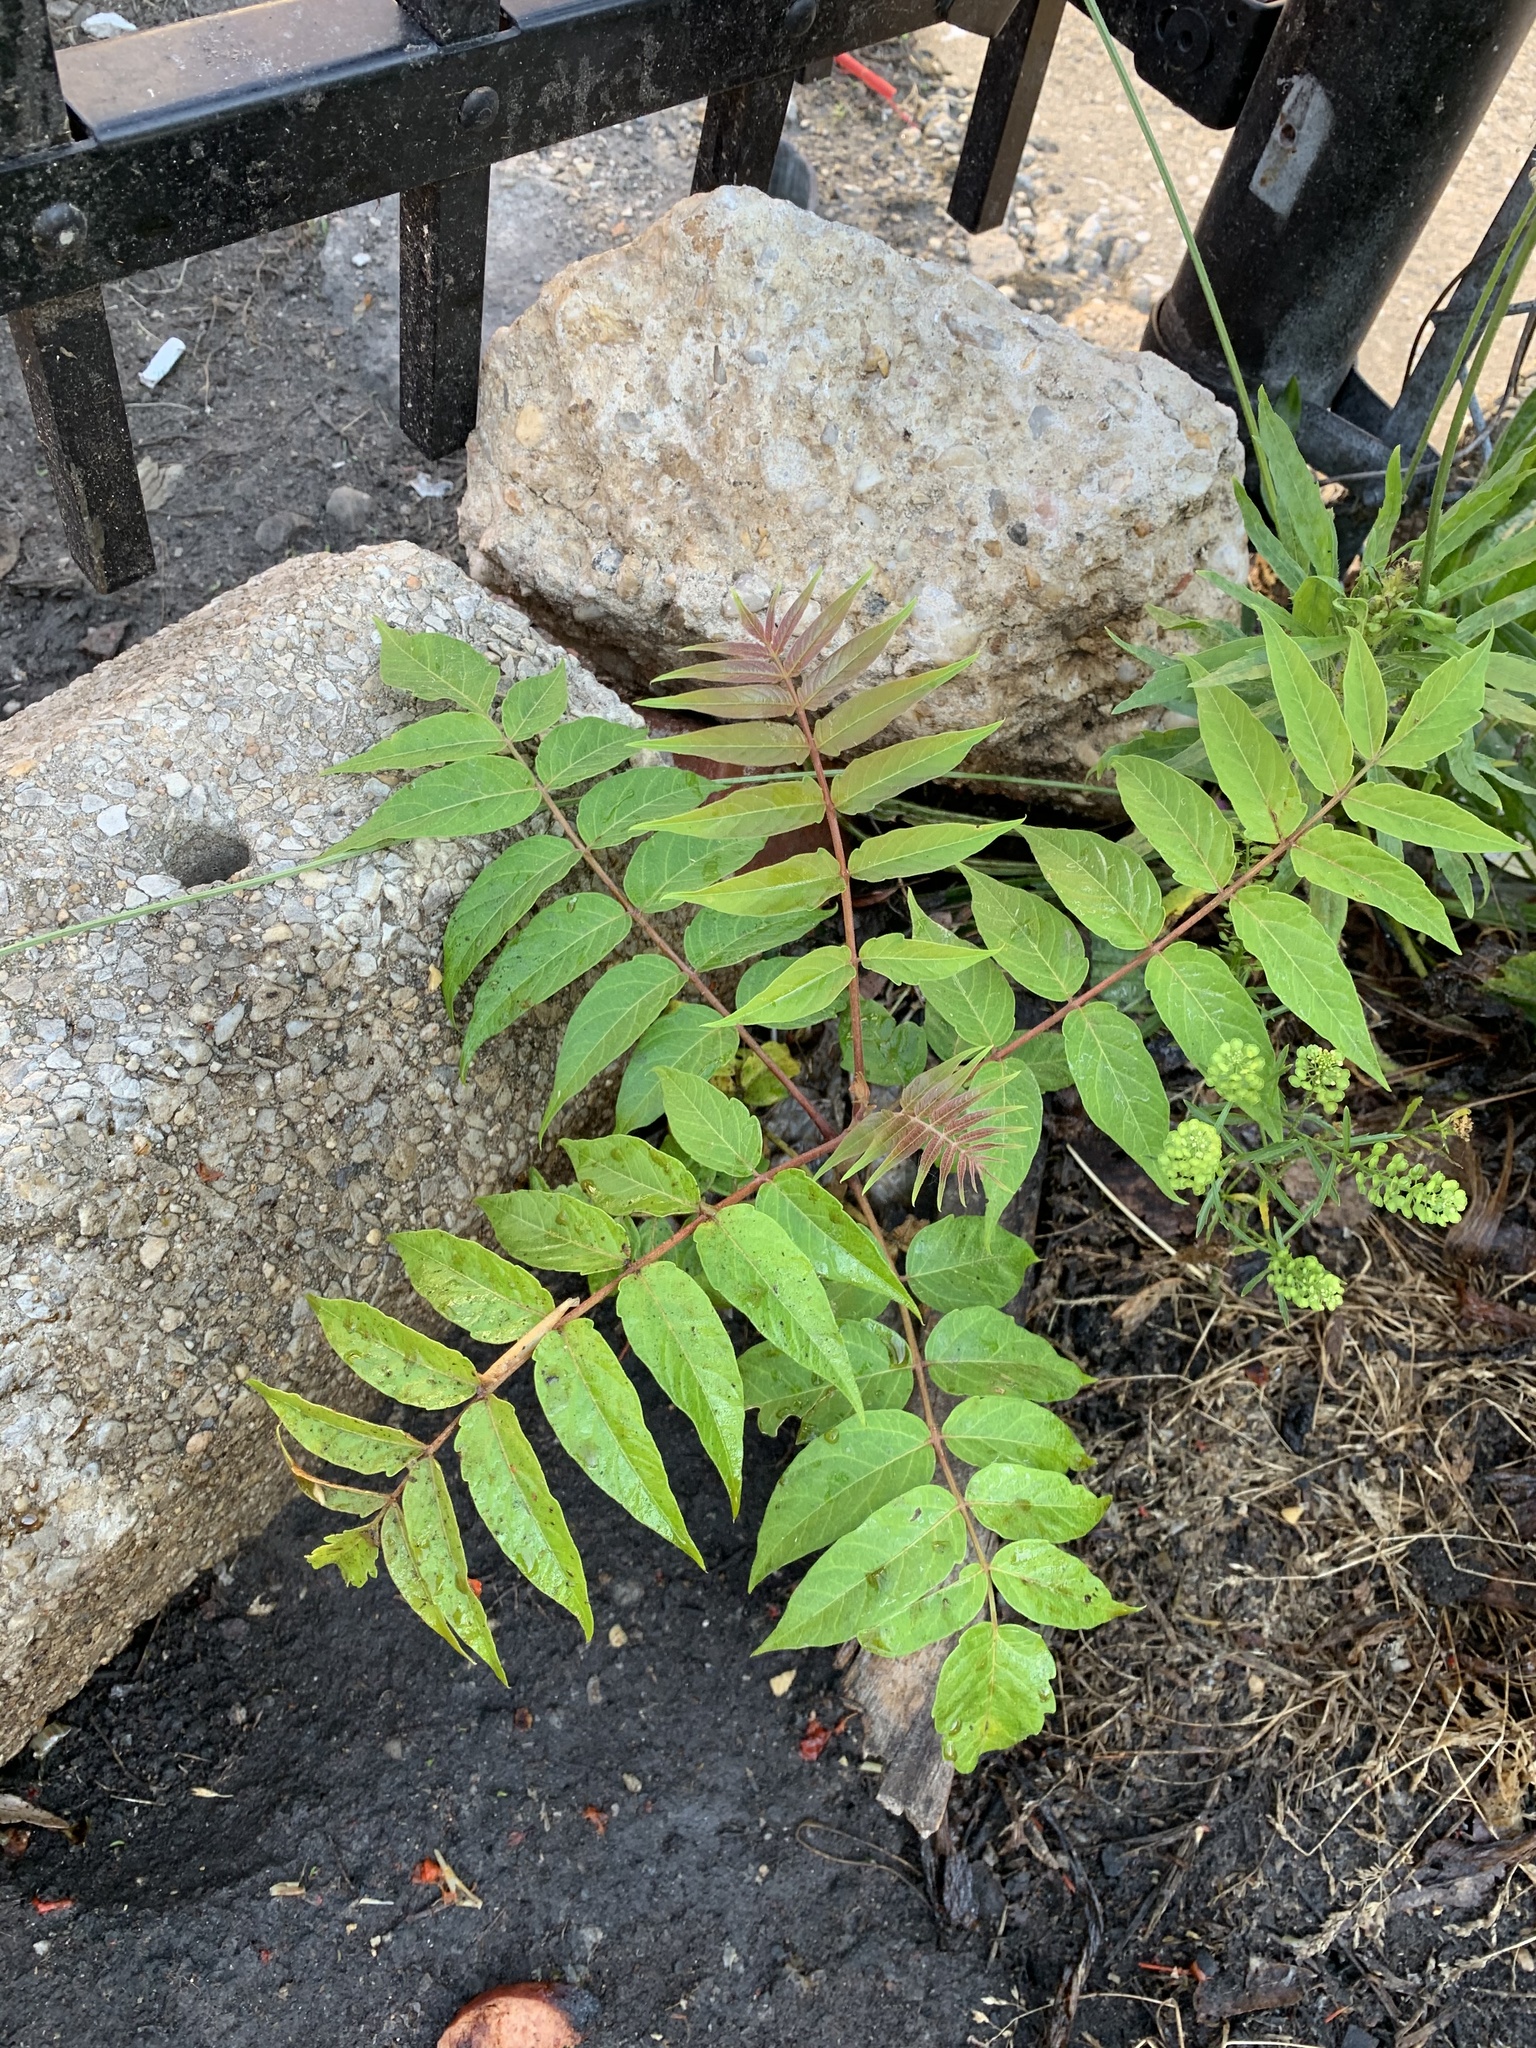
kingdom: Plantae
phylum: Tracheophyta
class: Magnoliopsida
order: Sapindales
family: Simaroubaceae
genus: Ailanthus
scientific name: Ailanthus altissima
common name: Tree-of-heaven
